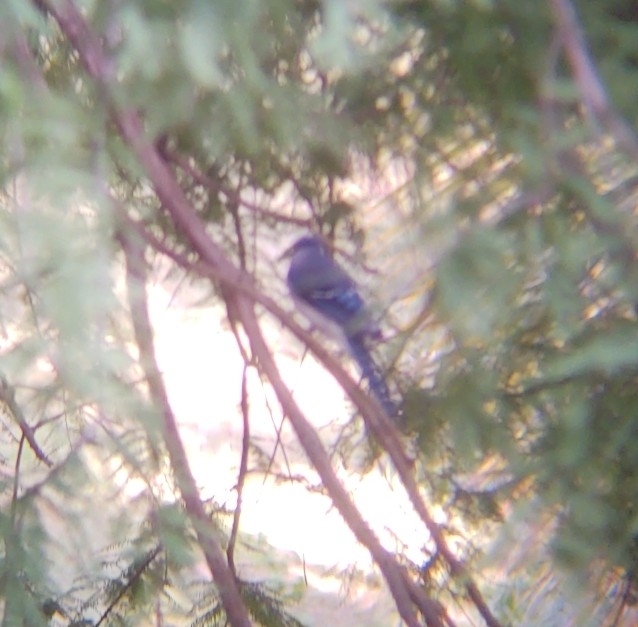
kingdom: Animalia
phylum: Chordata
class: Aves
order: Passeriformes
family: Corvidae
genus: Cyanocitta
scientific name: Cyanocitta cristata
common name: Blue jay
